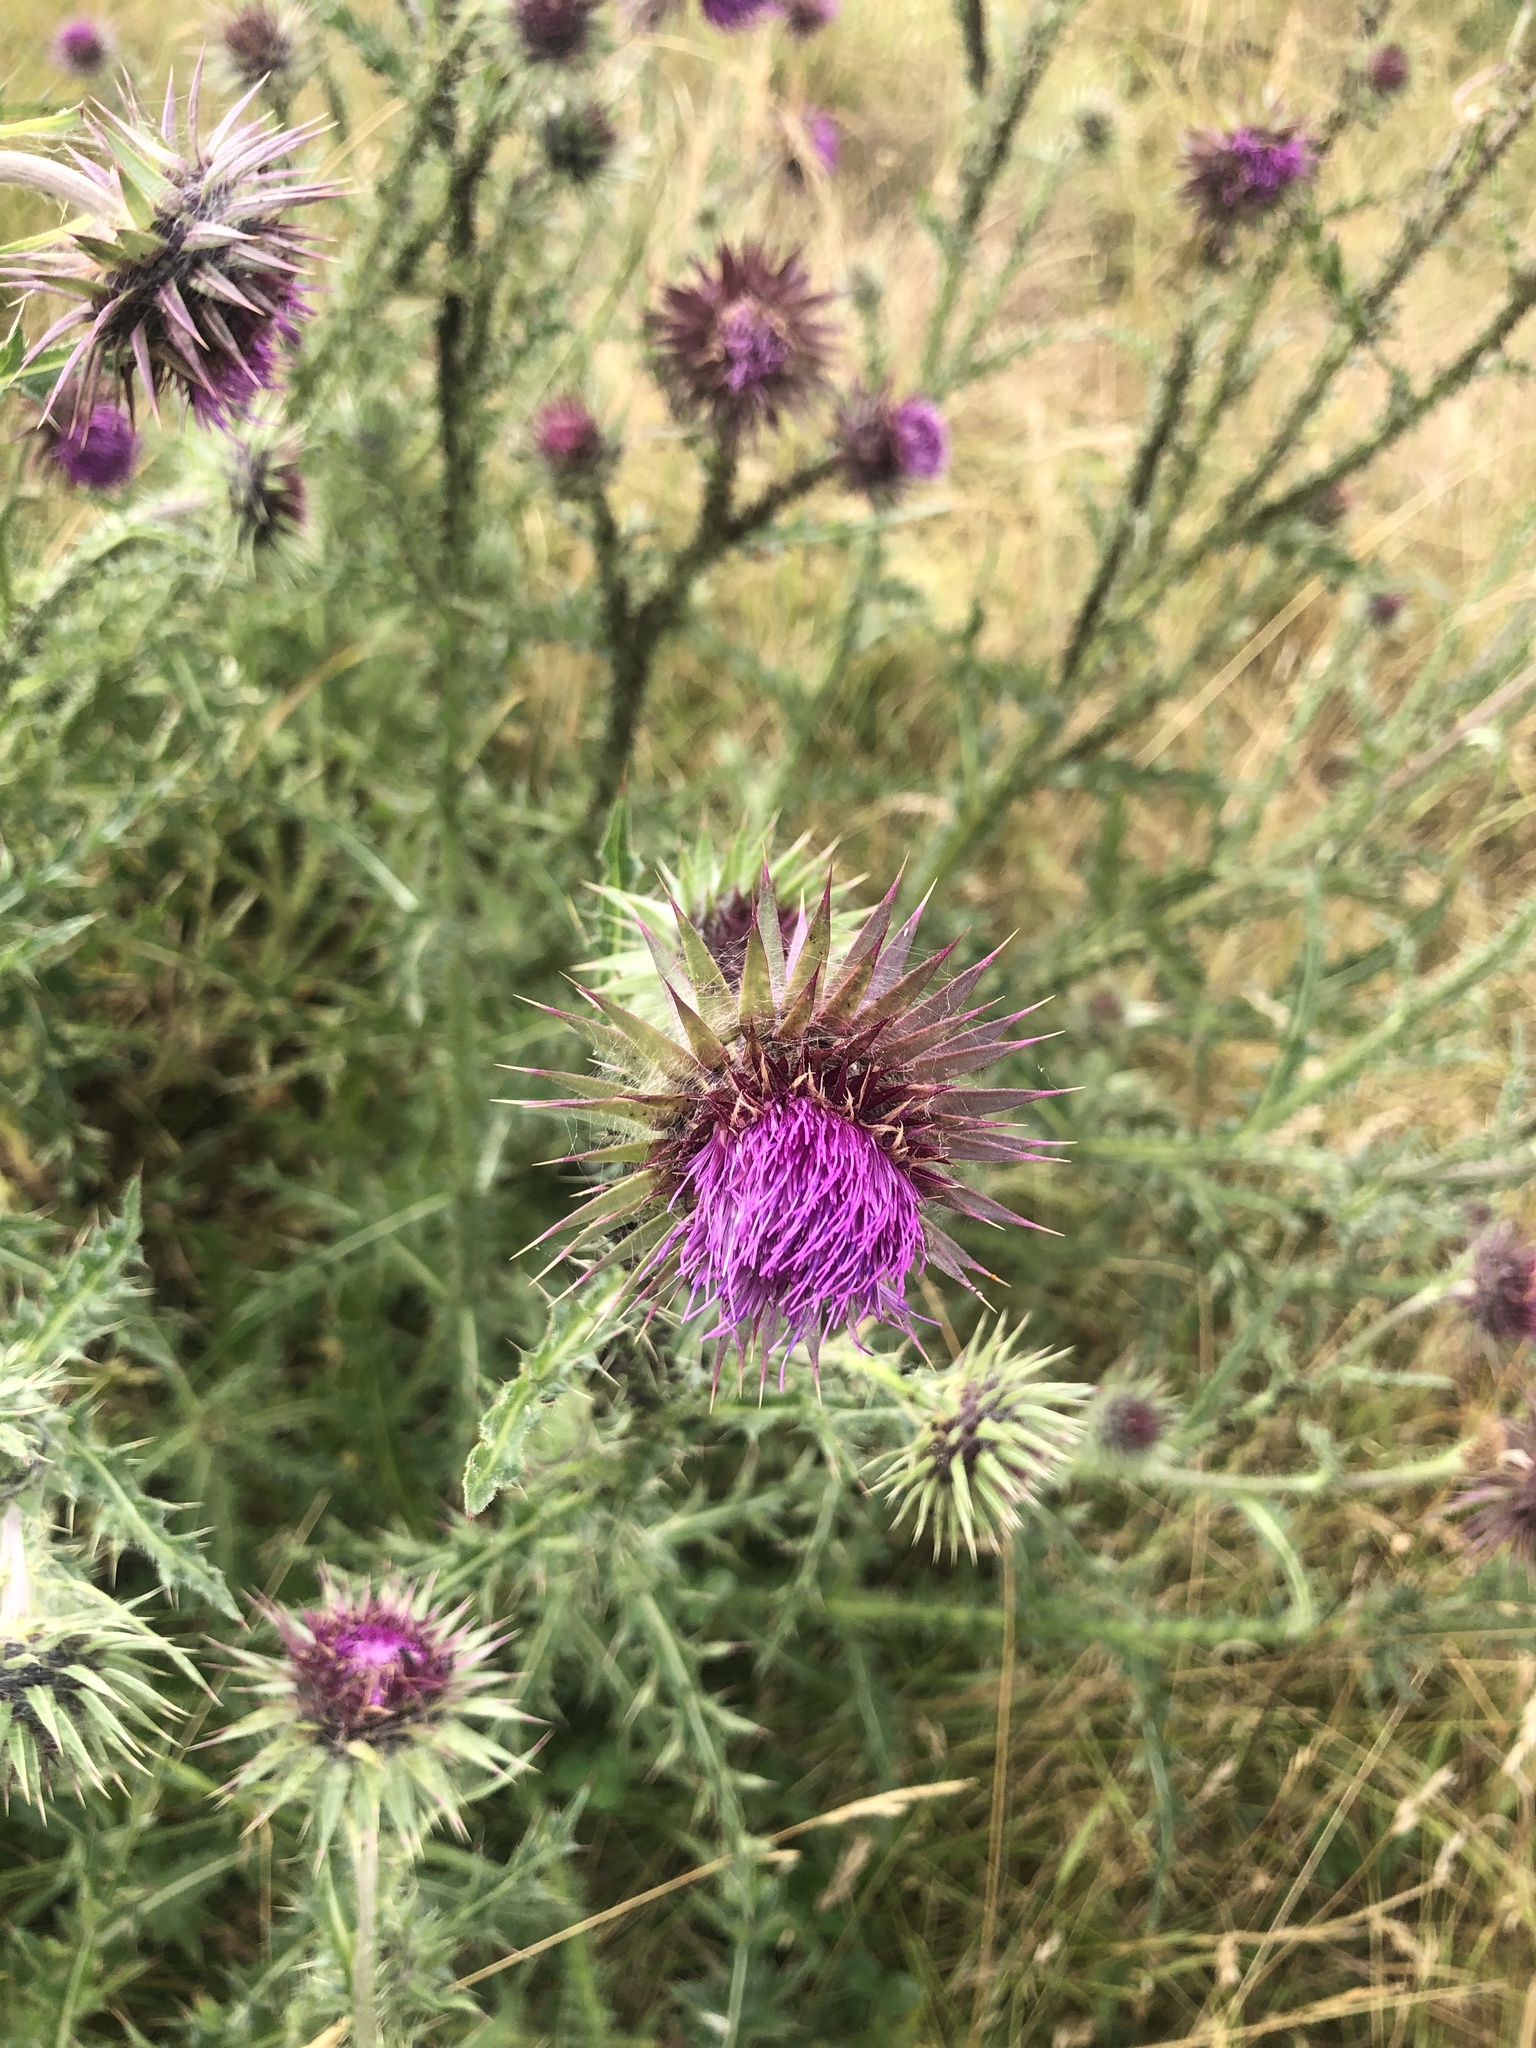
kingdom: Plantae
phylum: Tracheophyta
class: Magnoliopsida
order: Asterales
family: Asteraceae
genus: Carduus
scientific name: Carduus nutans
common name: Musk thistle
